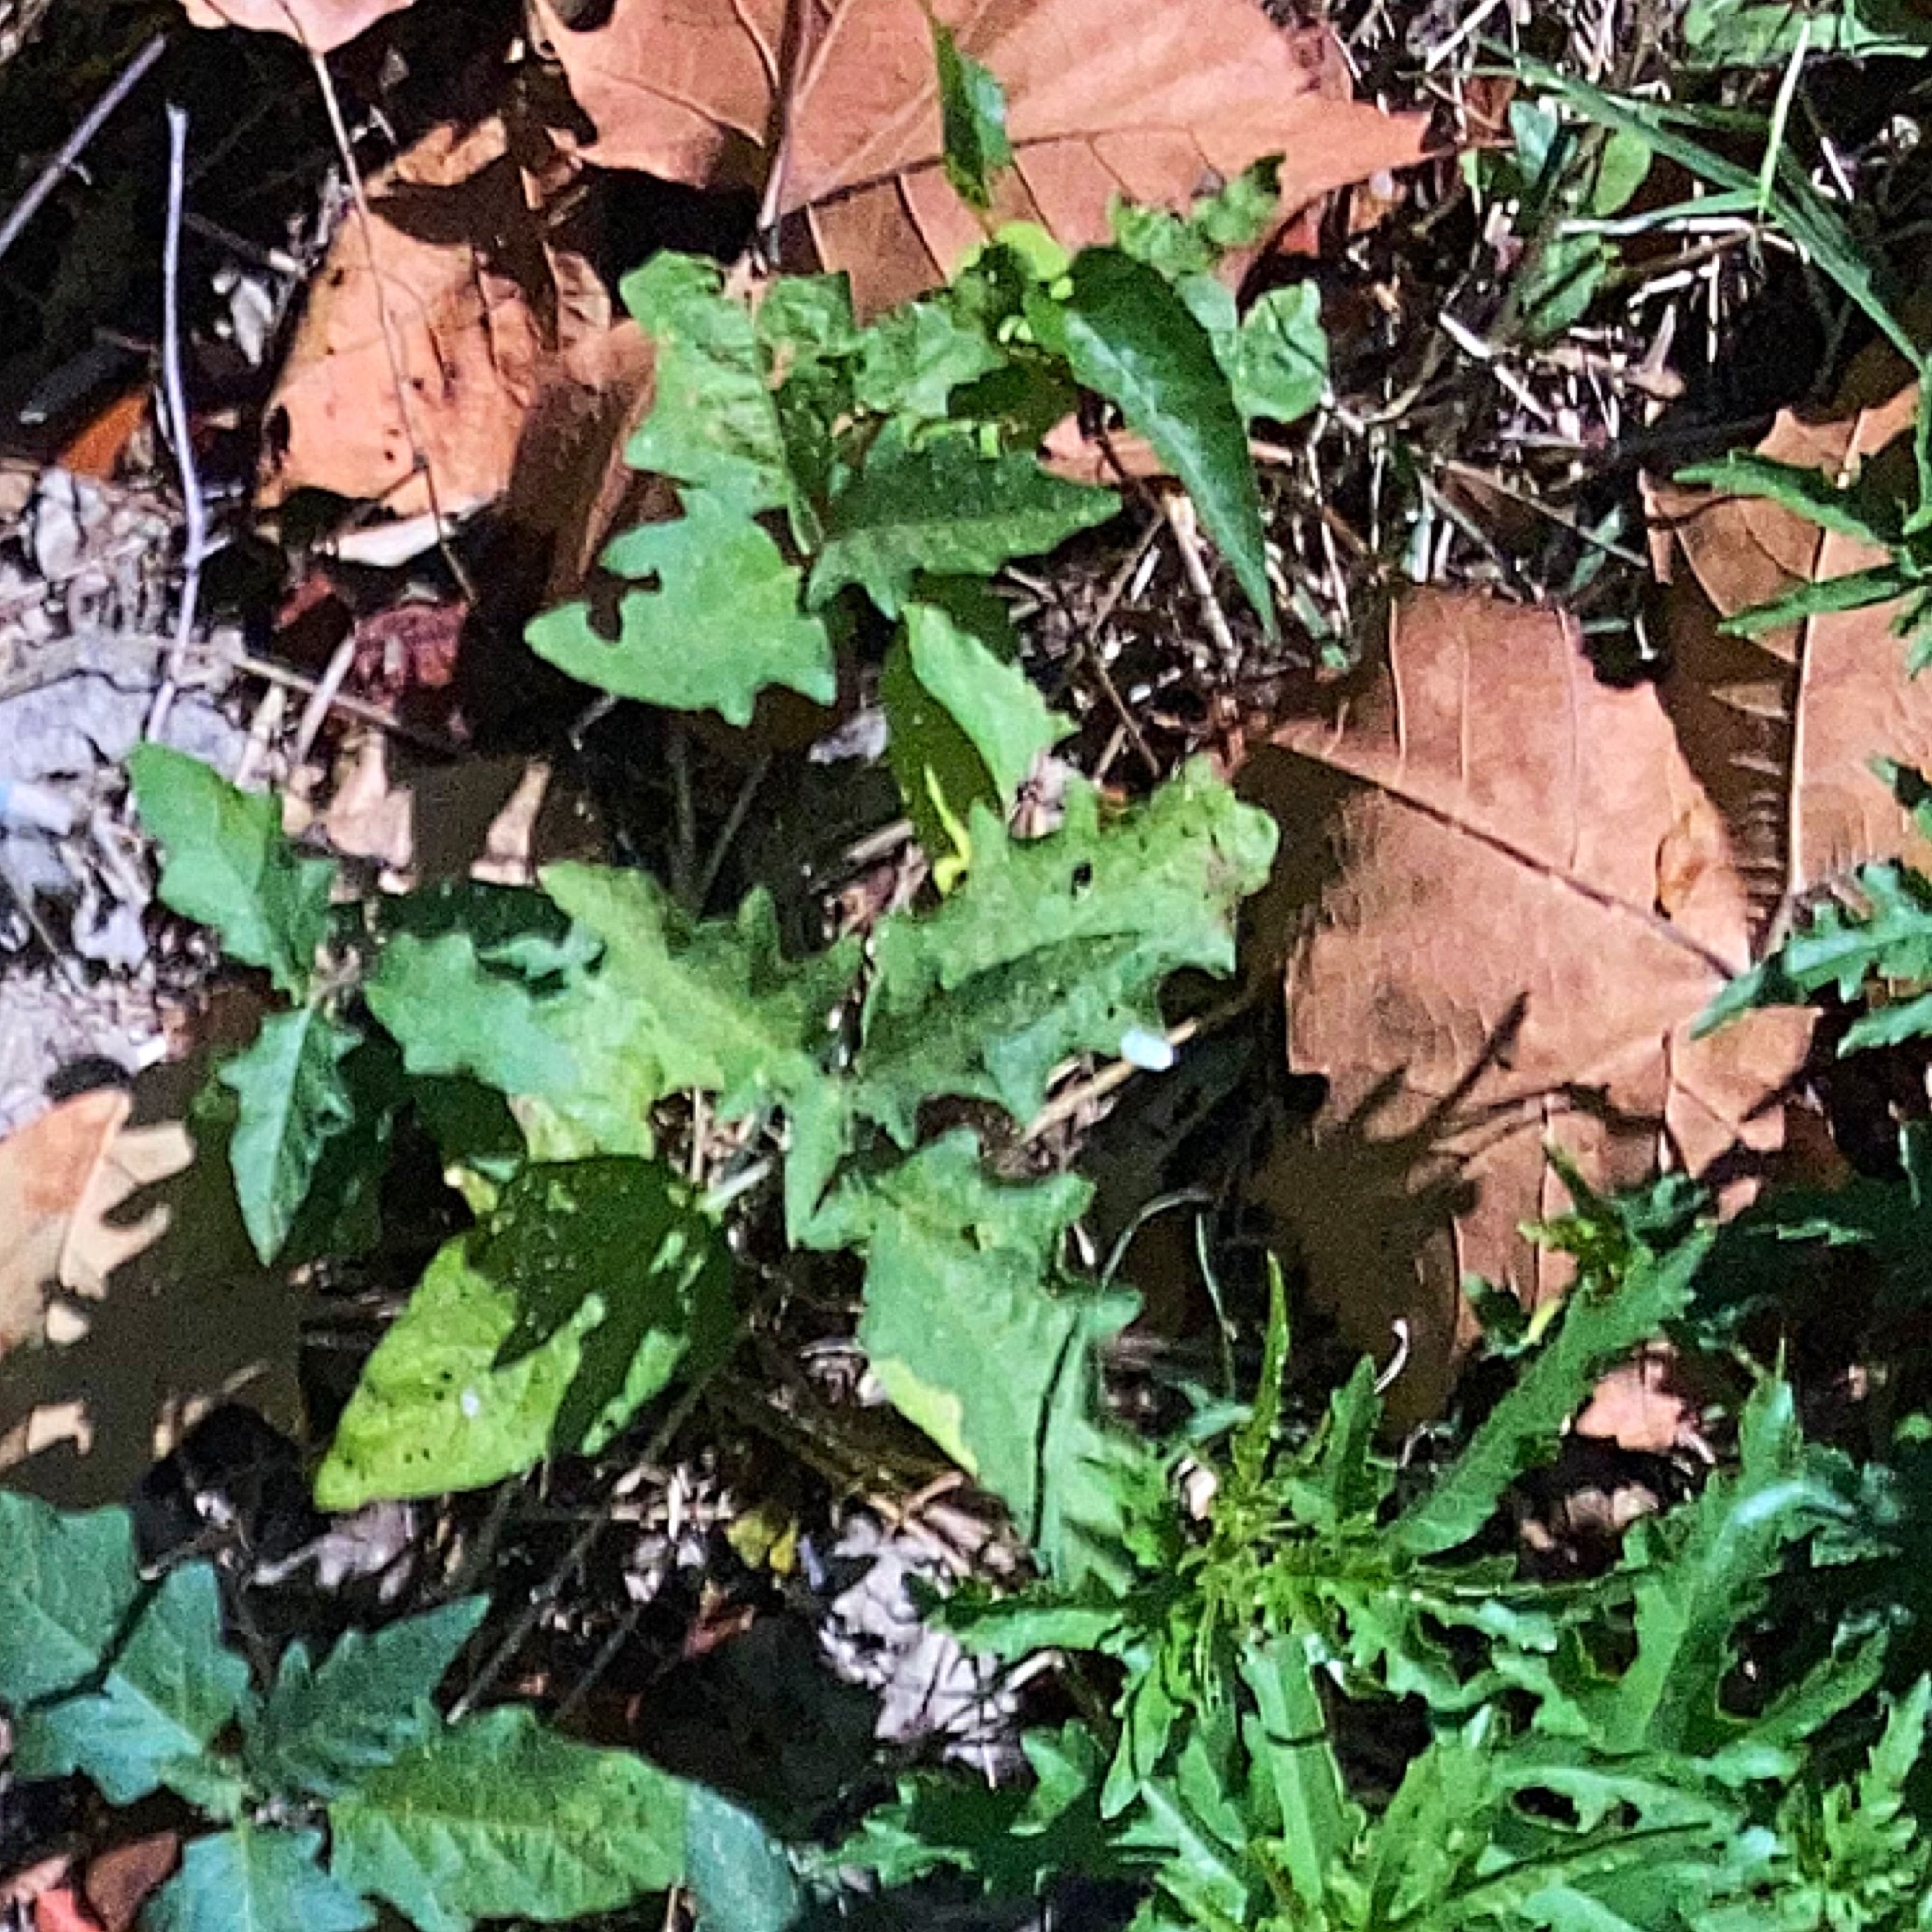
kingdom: Plantae
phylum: Tracheophyta
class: Magnoliopsida
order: Solanales
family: Solanaceae
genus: Solanum
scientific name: Solanum carolinense
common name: Horse-nettle
